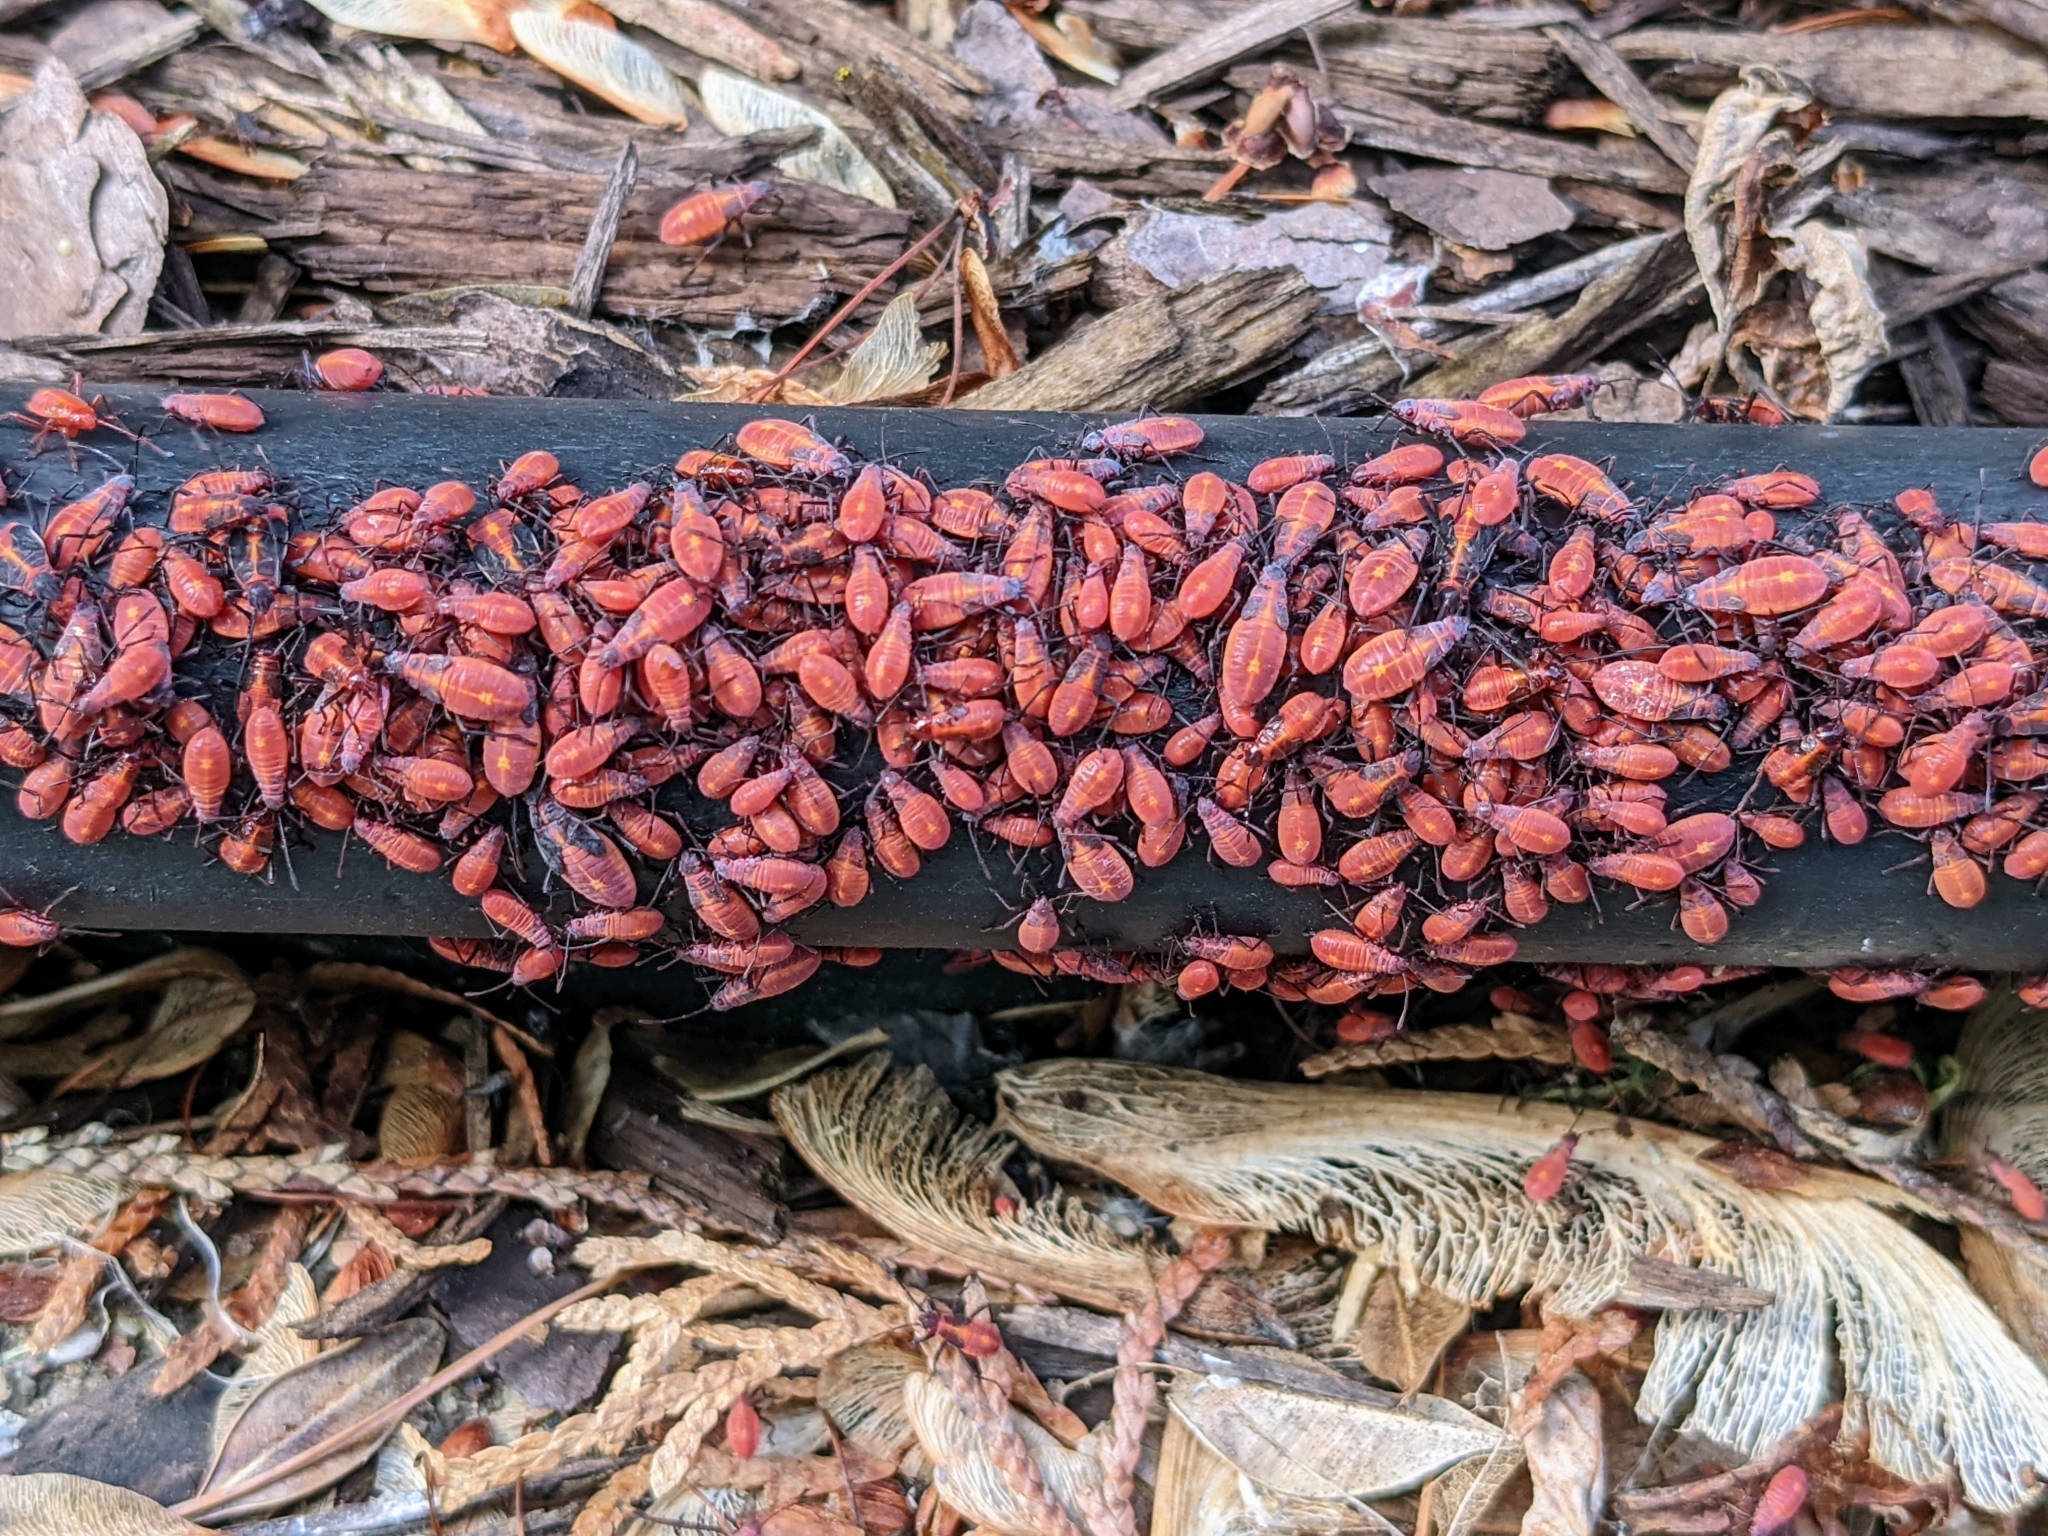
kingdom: Animalia
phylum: Arthropoda
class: Insecta
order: Hemiptera
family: Rhopalidae
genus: Boisea
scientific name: Boisea trivittata
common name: Boxelder bug
